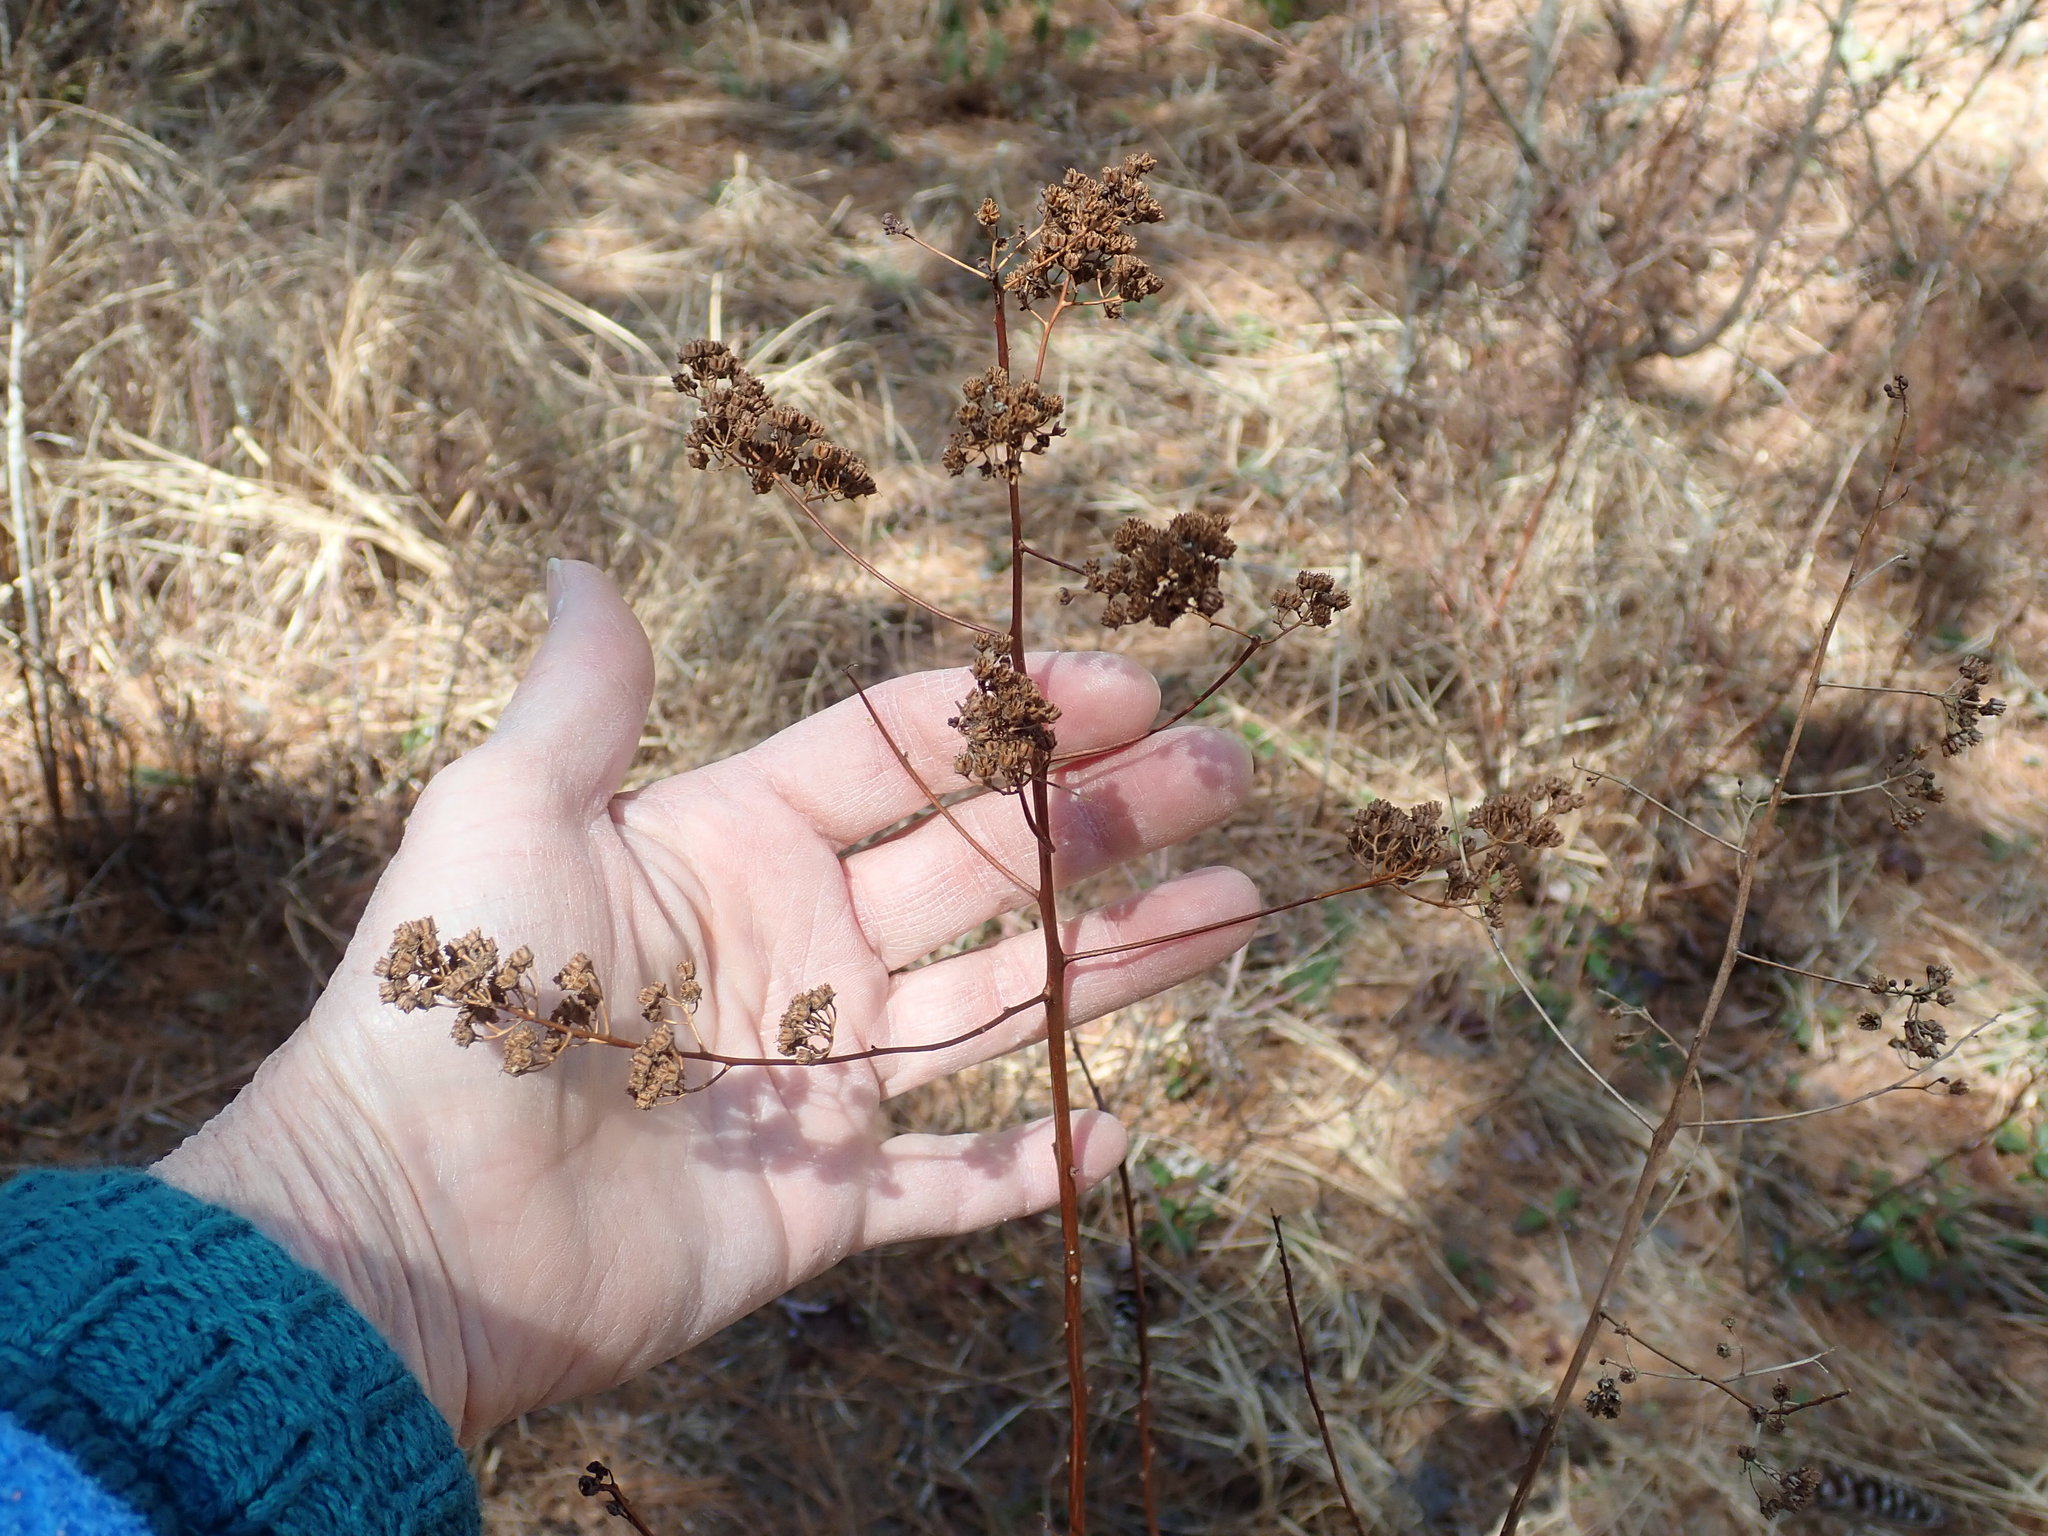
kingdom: Plantae
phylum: Tracheophyta
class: Magnoliopsida
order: Rosales
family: Rosaceae
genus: Spiraea
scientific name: Spiraea alba
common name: Pale bridewort
